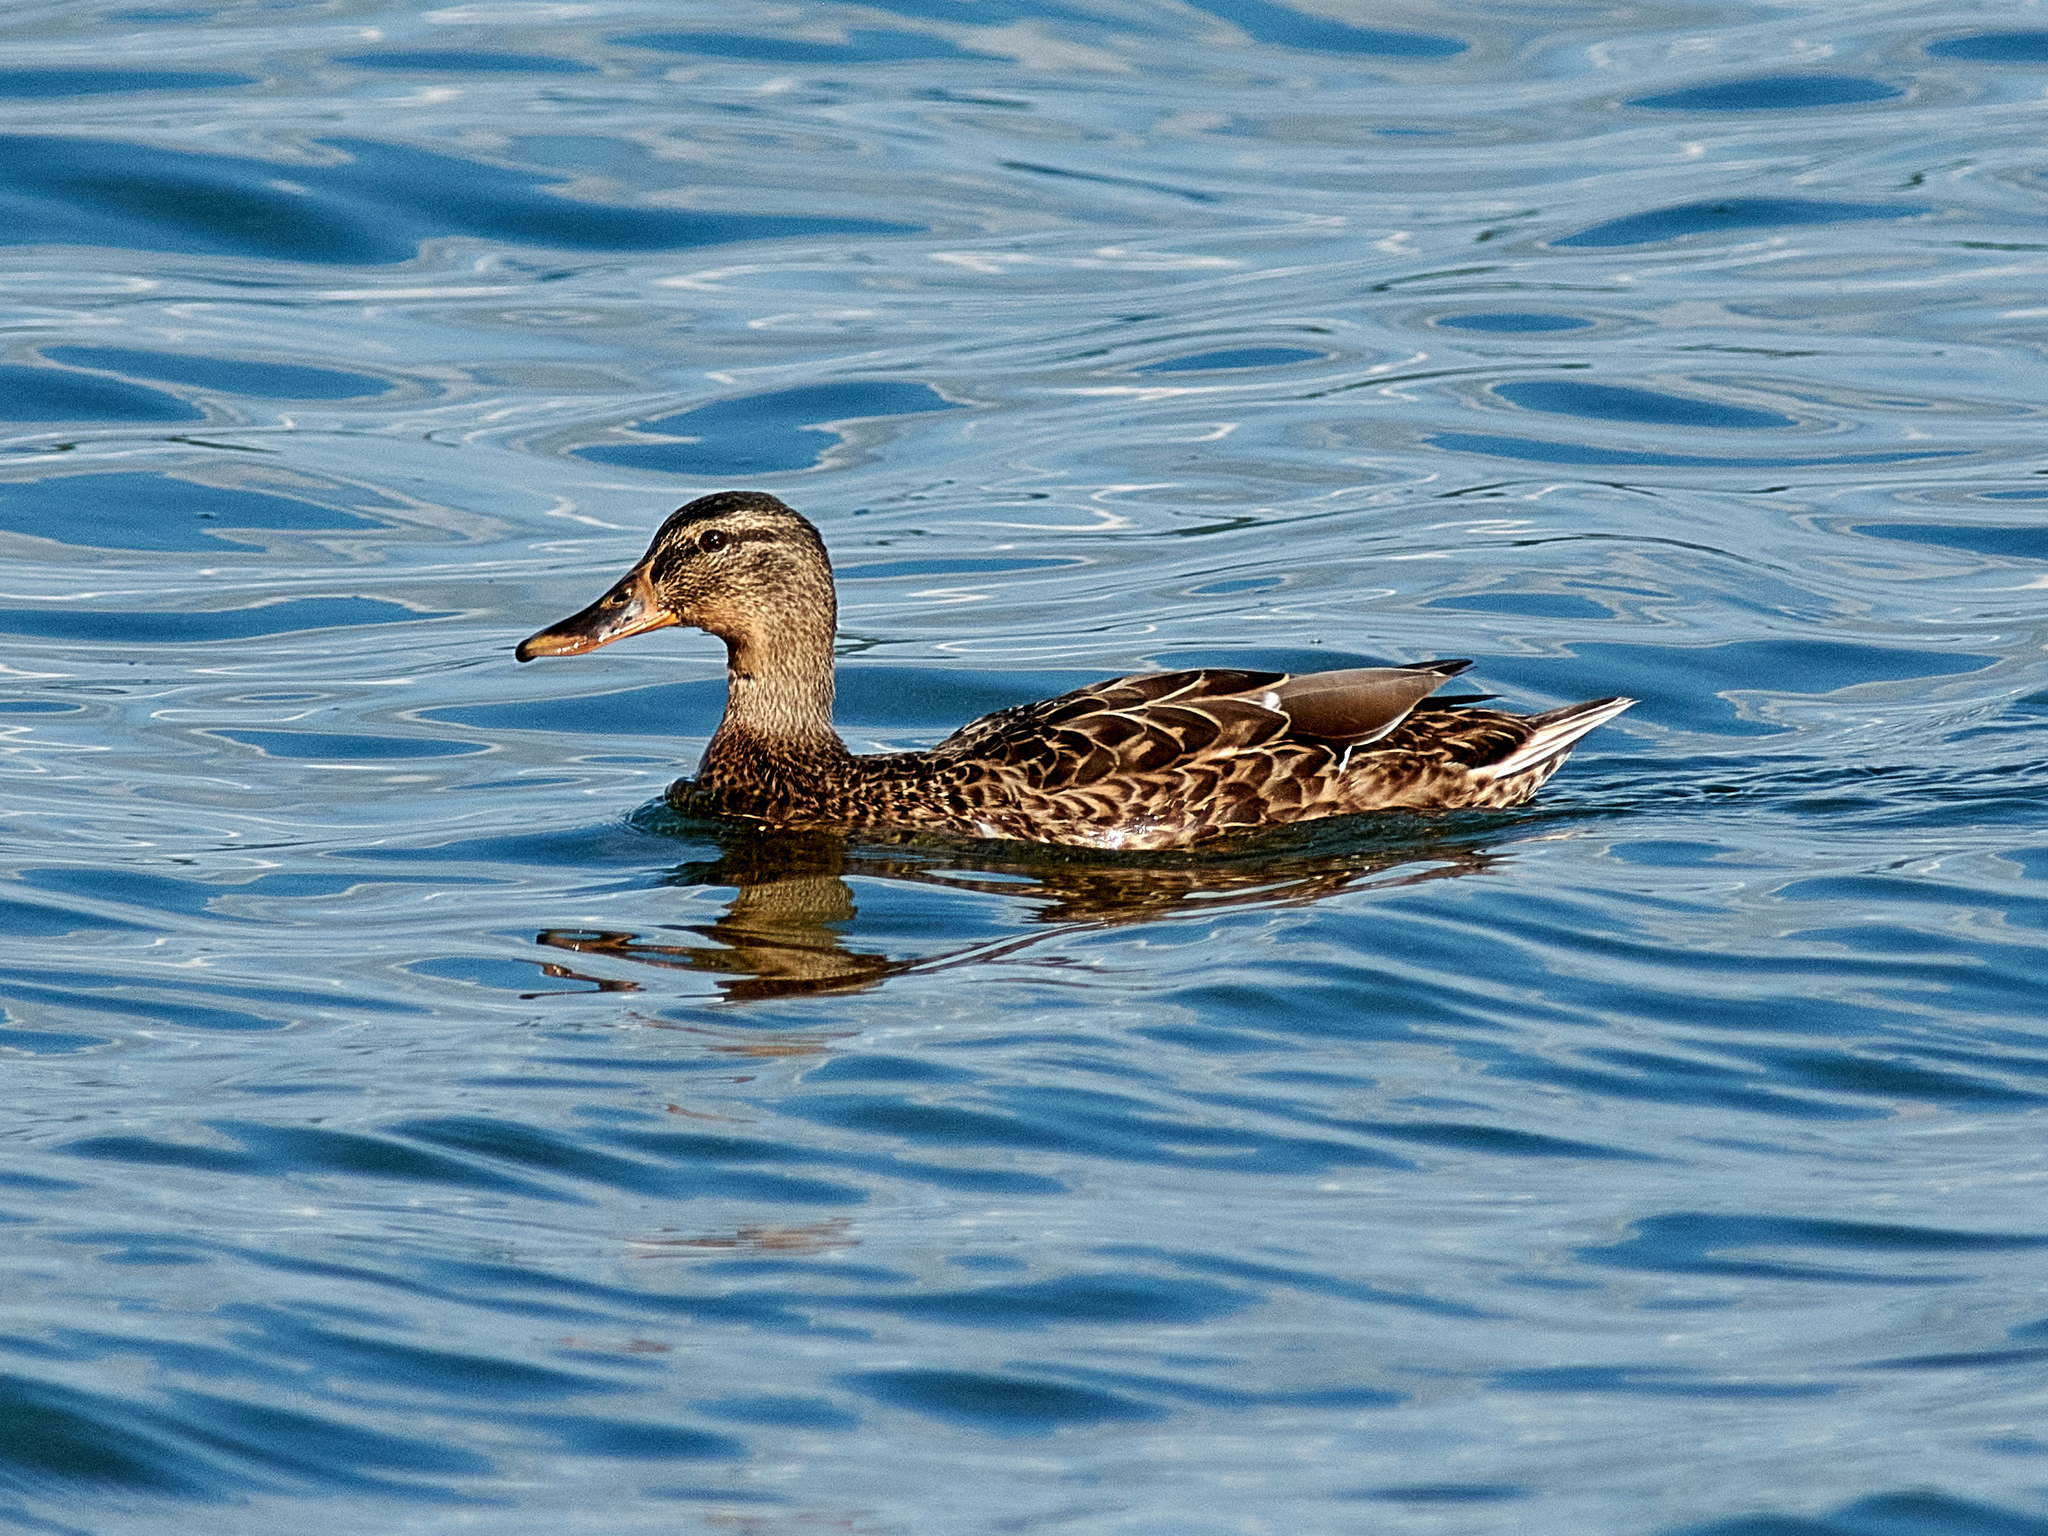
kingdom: Animalia
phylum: Chordata
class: Aves
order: Anseriformes
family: Anatidae
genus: Anas
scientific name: Anas platyrhynchos
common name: Mallard
